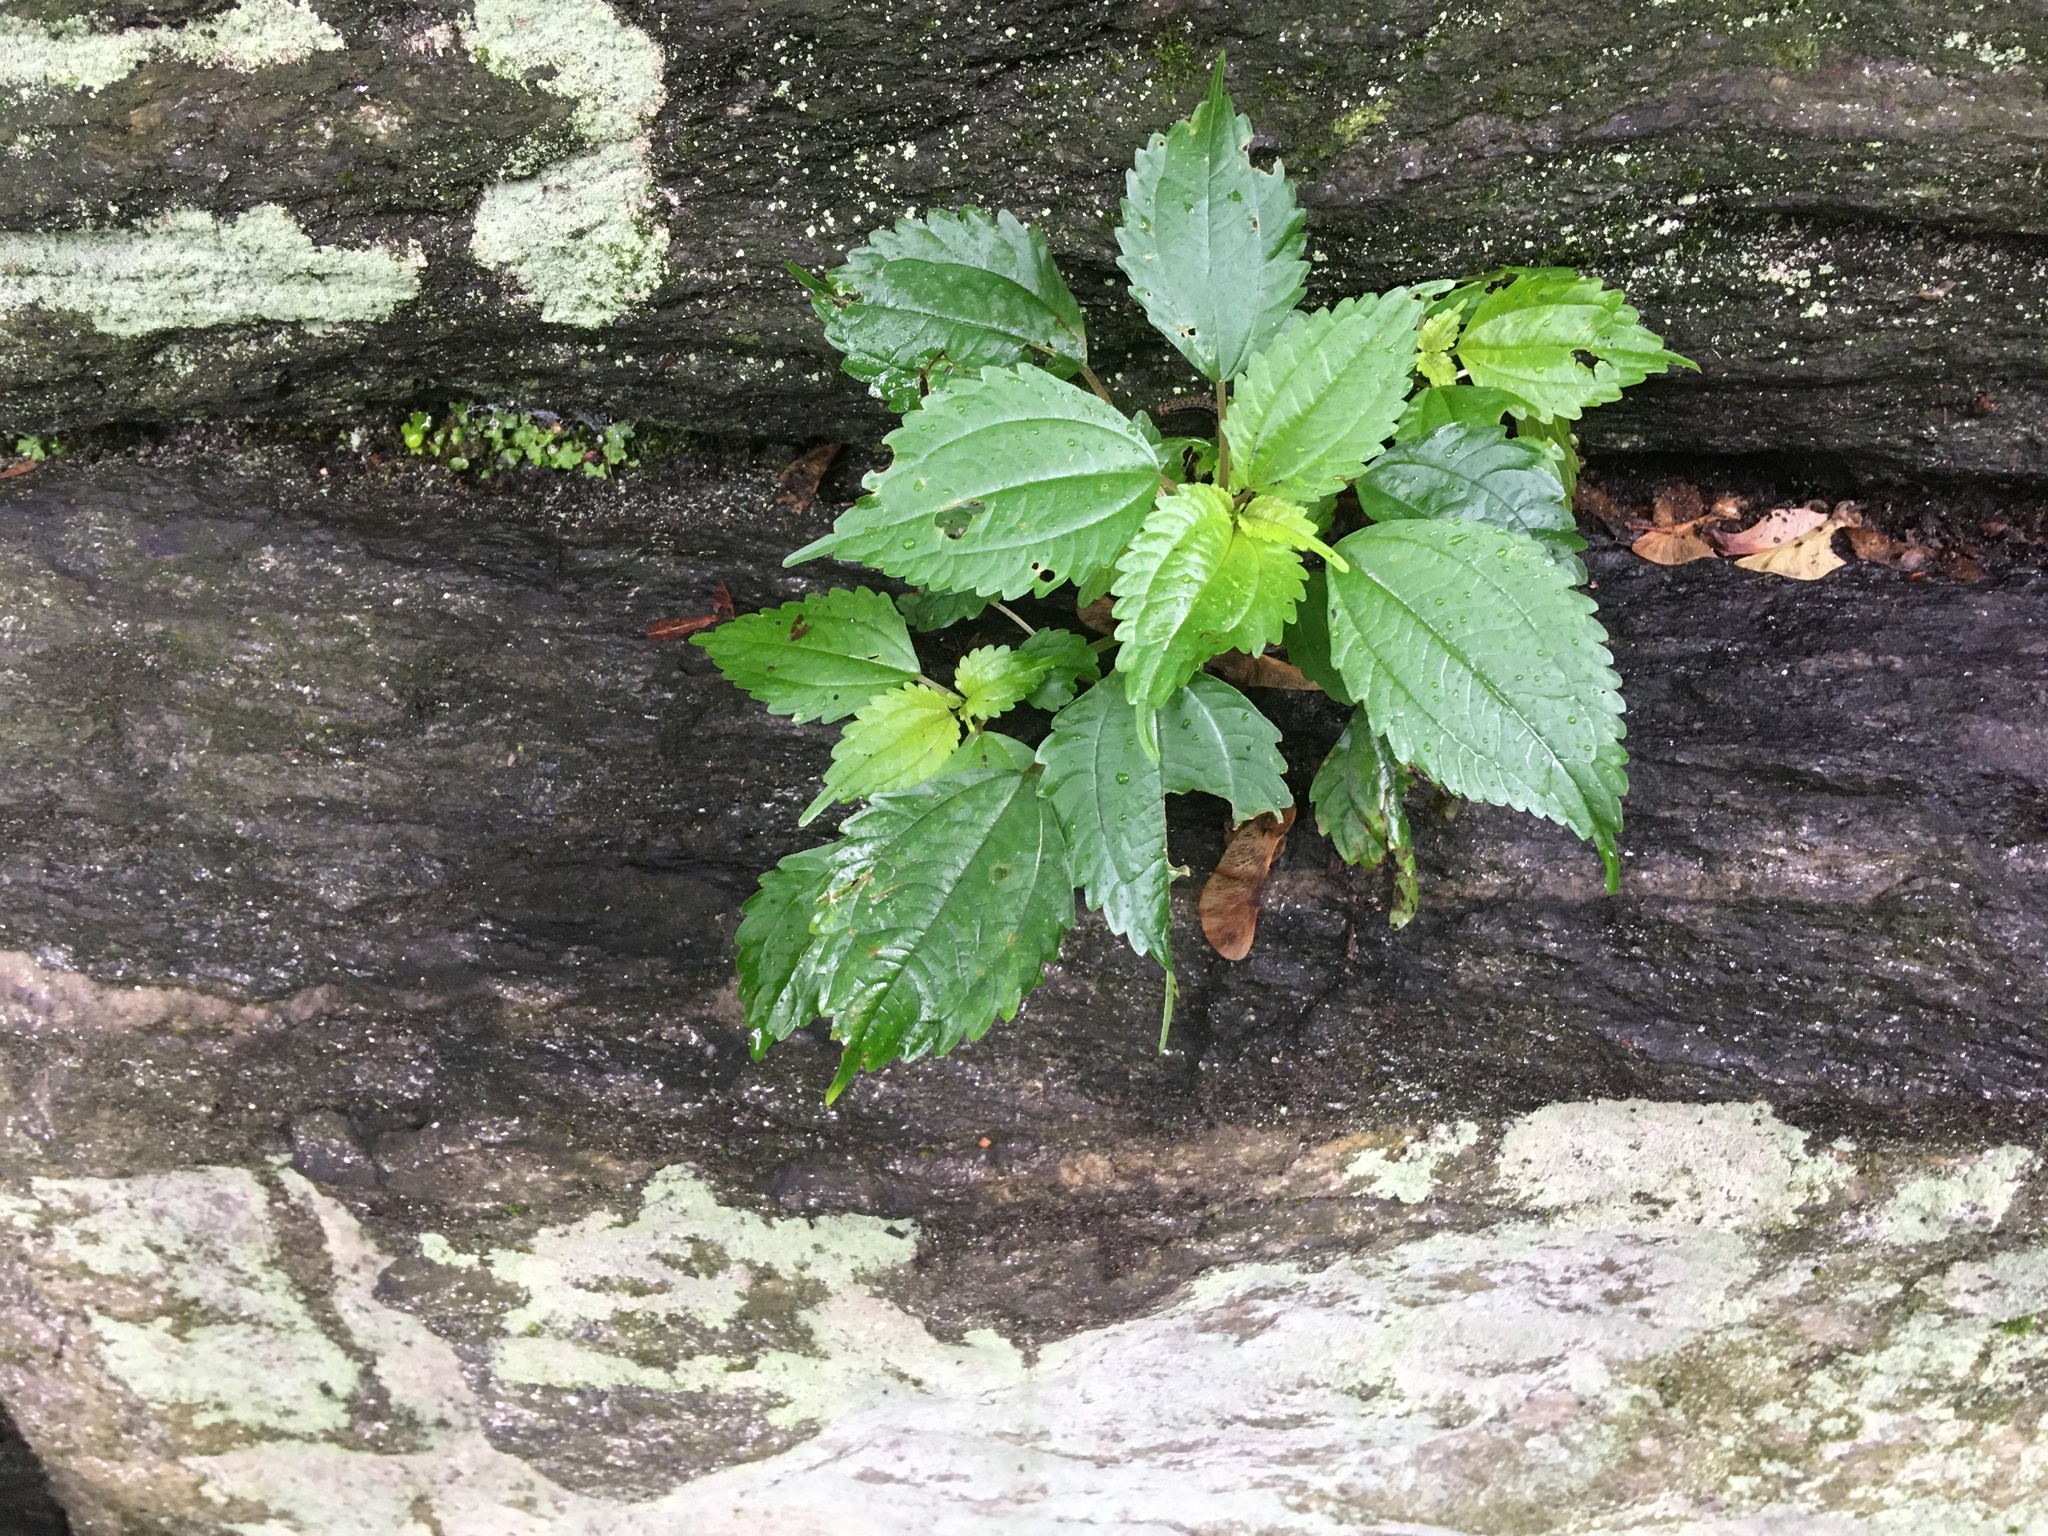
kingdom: Plantae
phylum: Tracheophyta
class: Magnoliopsida
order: Rosales
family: Urticaceae
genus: Pilea
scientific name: Pilea pumila
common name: Clearweed
